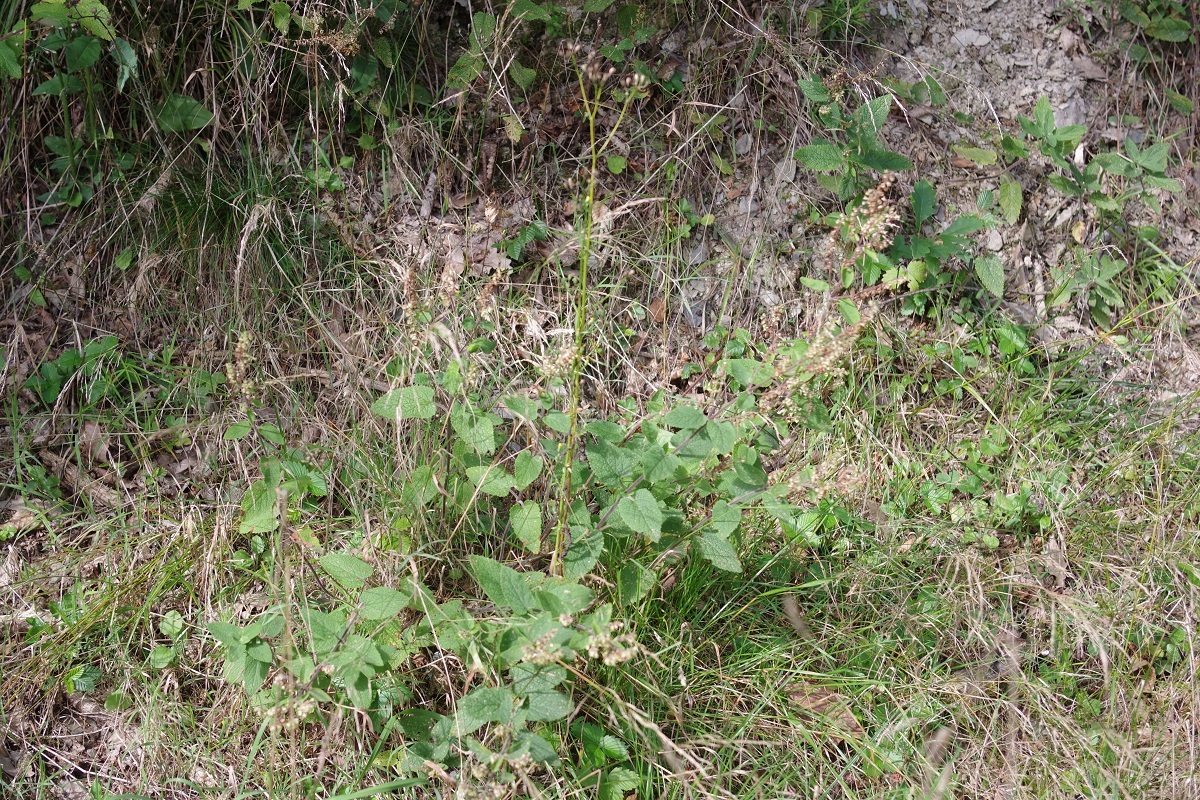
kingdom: Plantae
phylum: Tracheophyta
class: Magnoliopsida
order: Lamiales
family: Lamiaceae
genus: Teucrium
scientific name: Teucrium scorodonia
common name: Woodland germander
